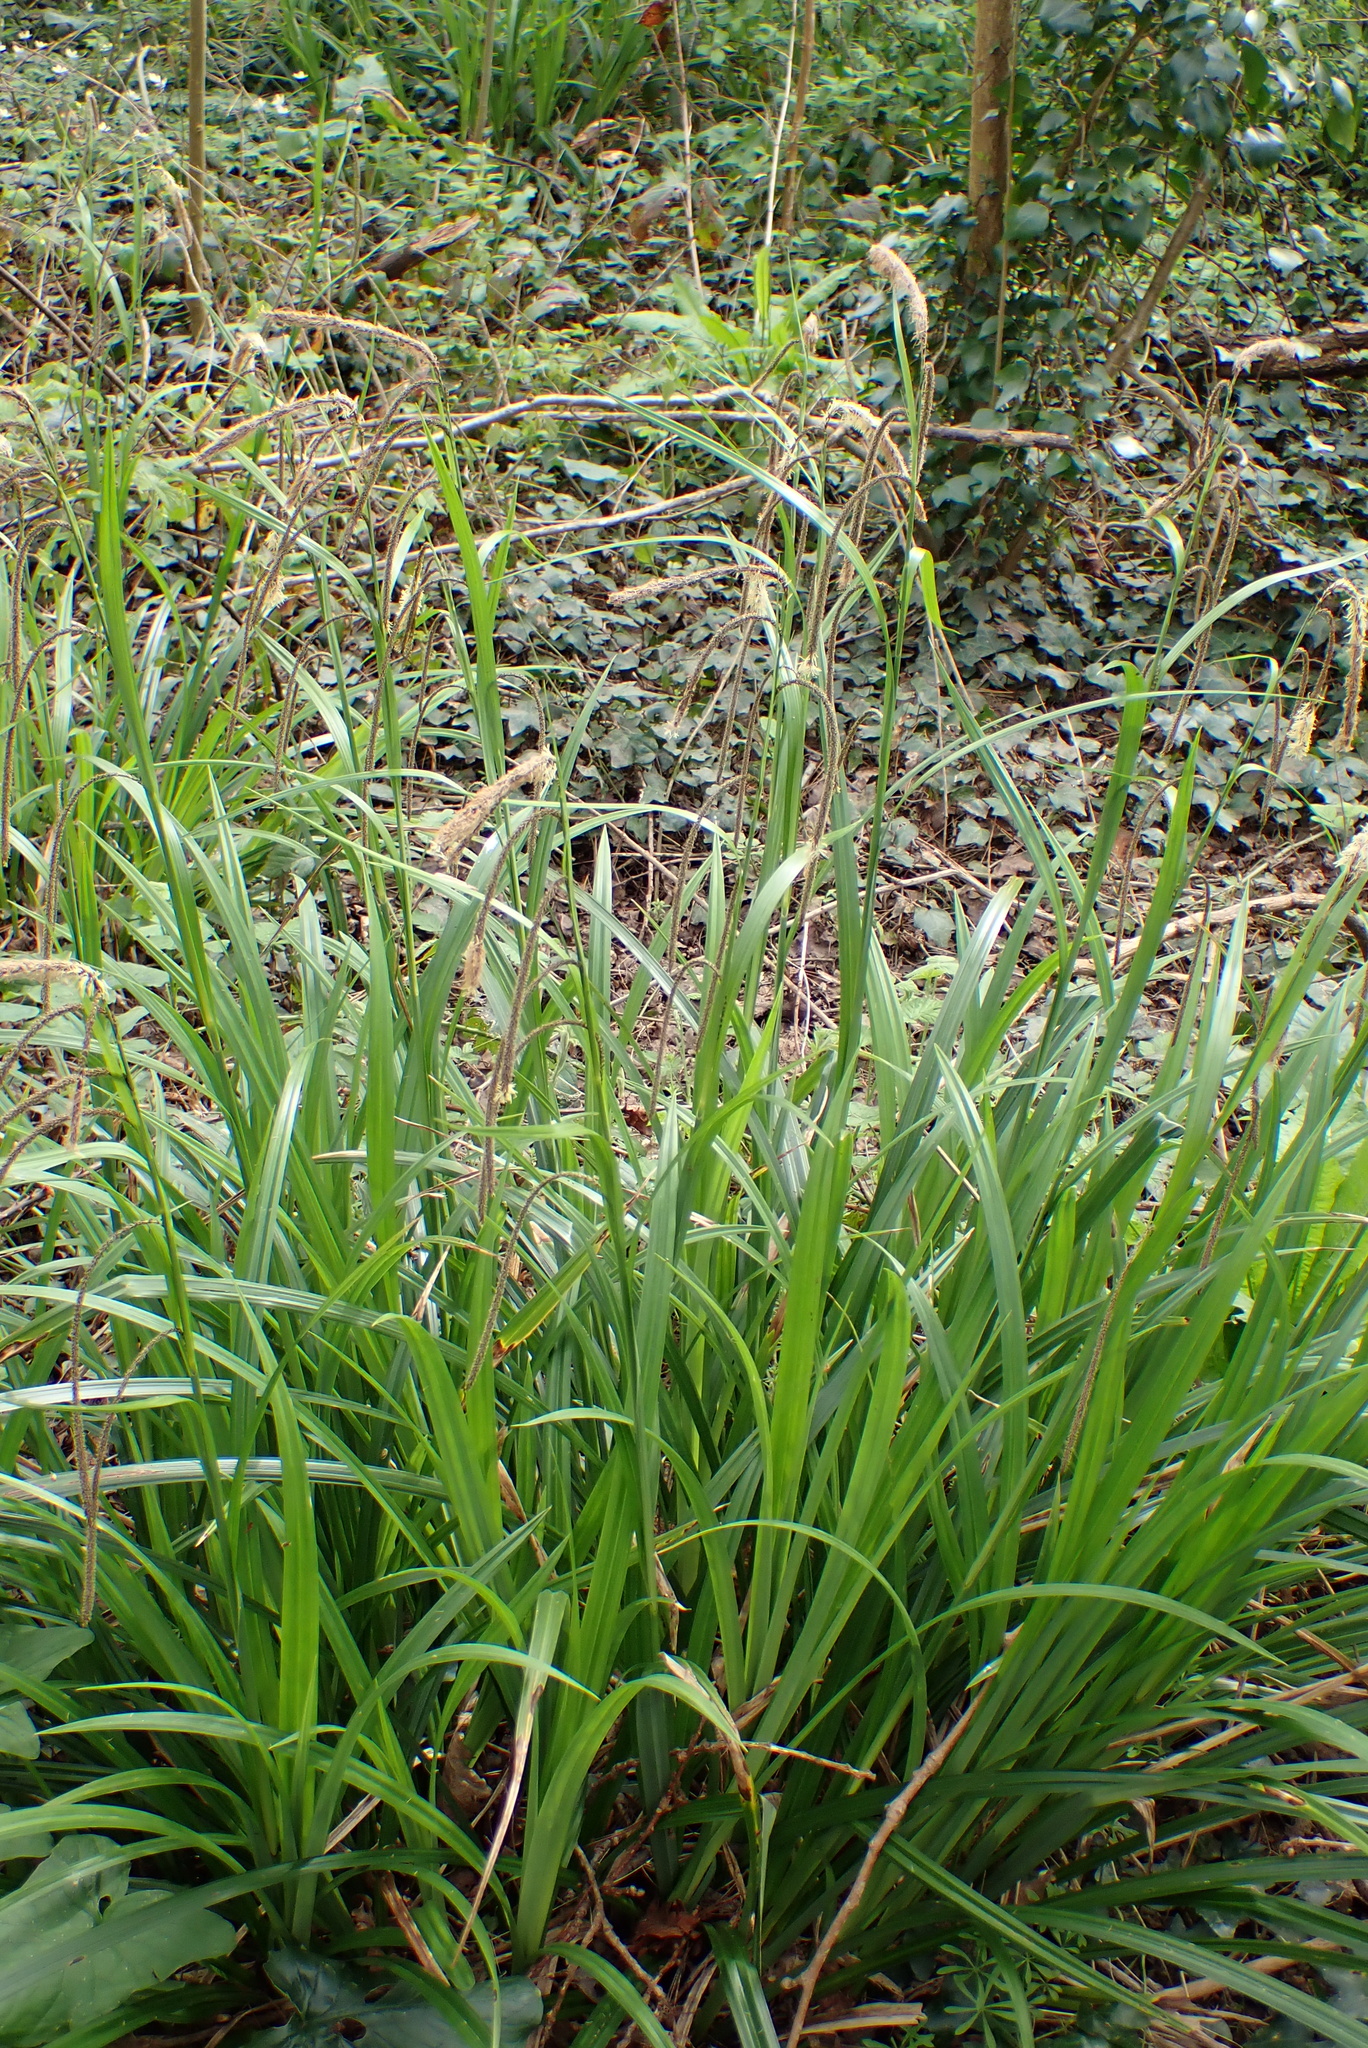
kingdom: Plantae
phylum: Tracheophyta
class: Liliopsida
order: Poales
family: Cyperaceae
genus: Carex
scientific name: Carex pendula
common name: Pendulous sedge
